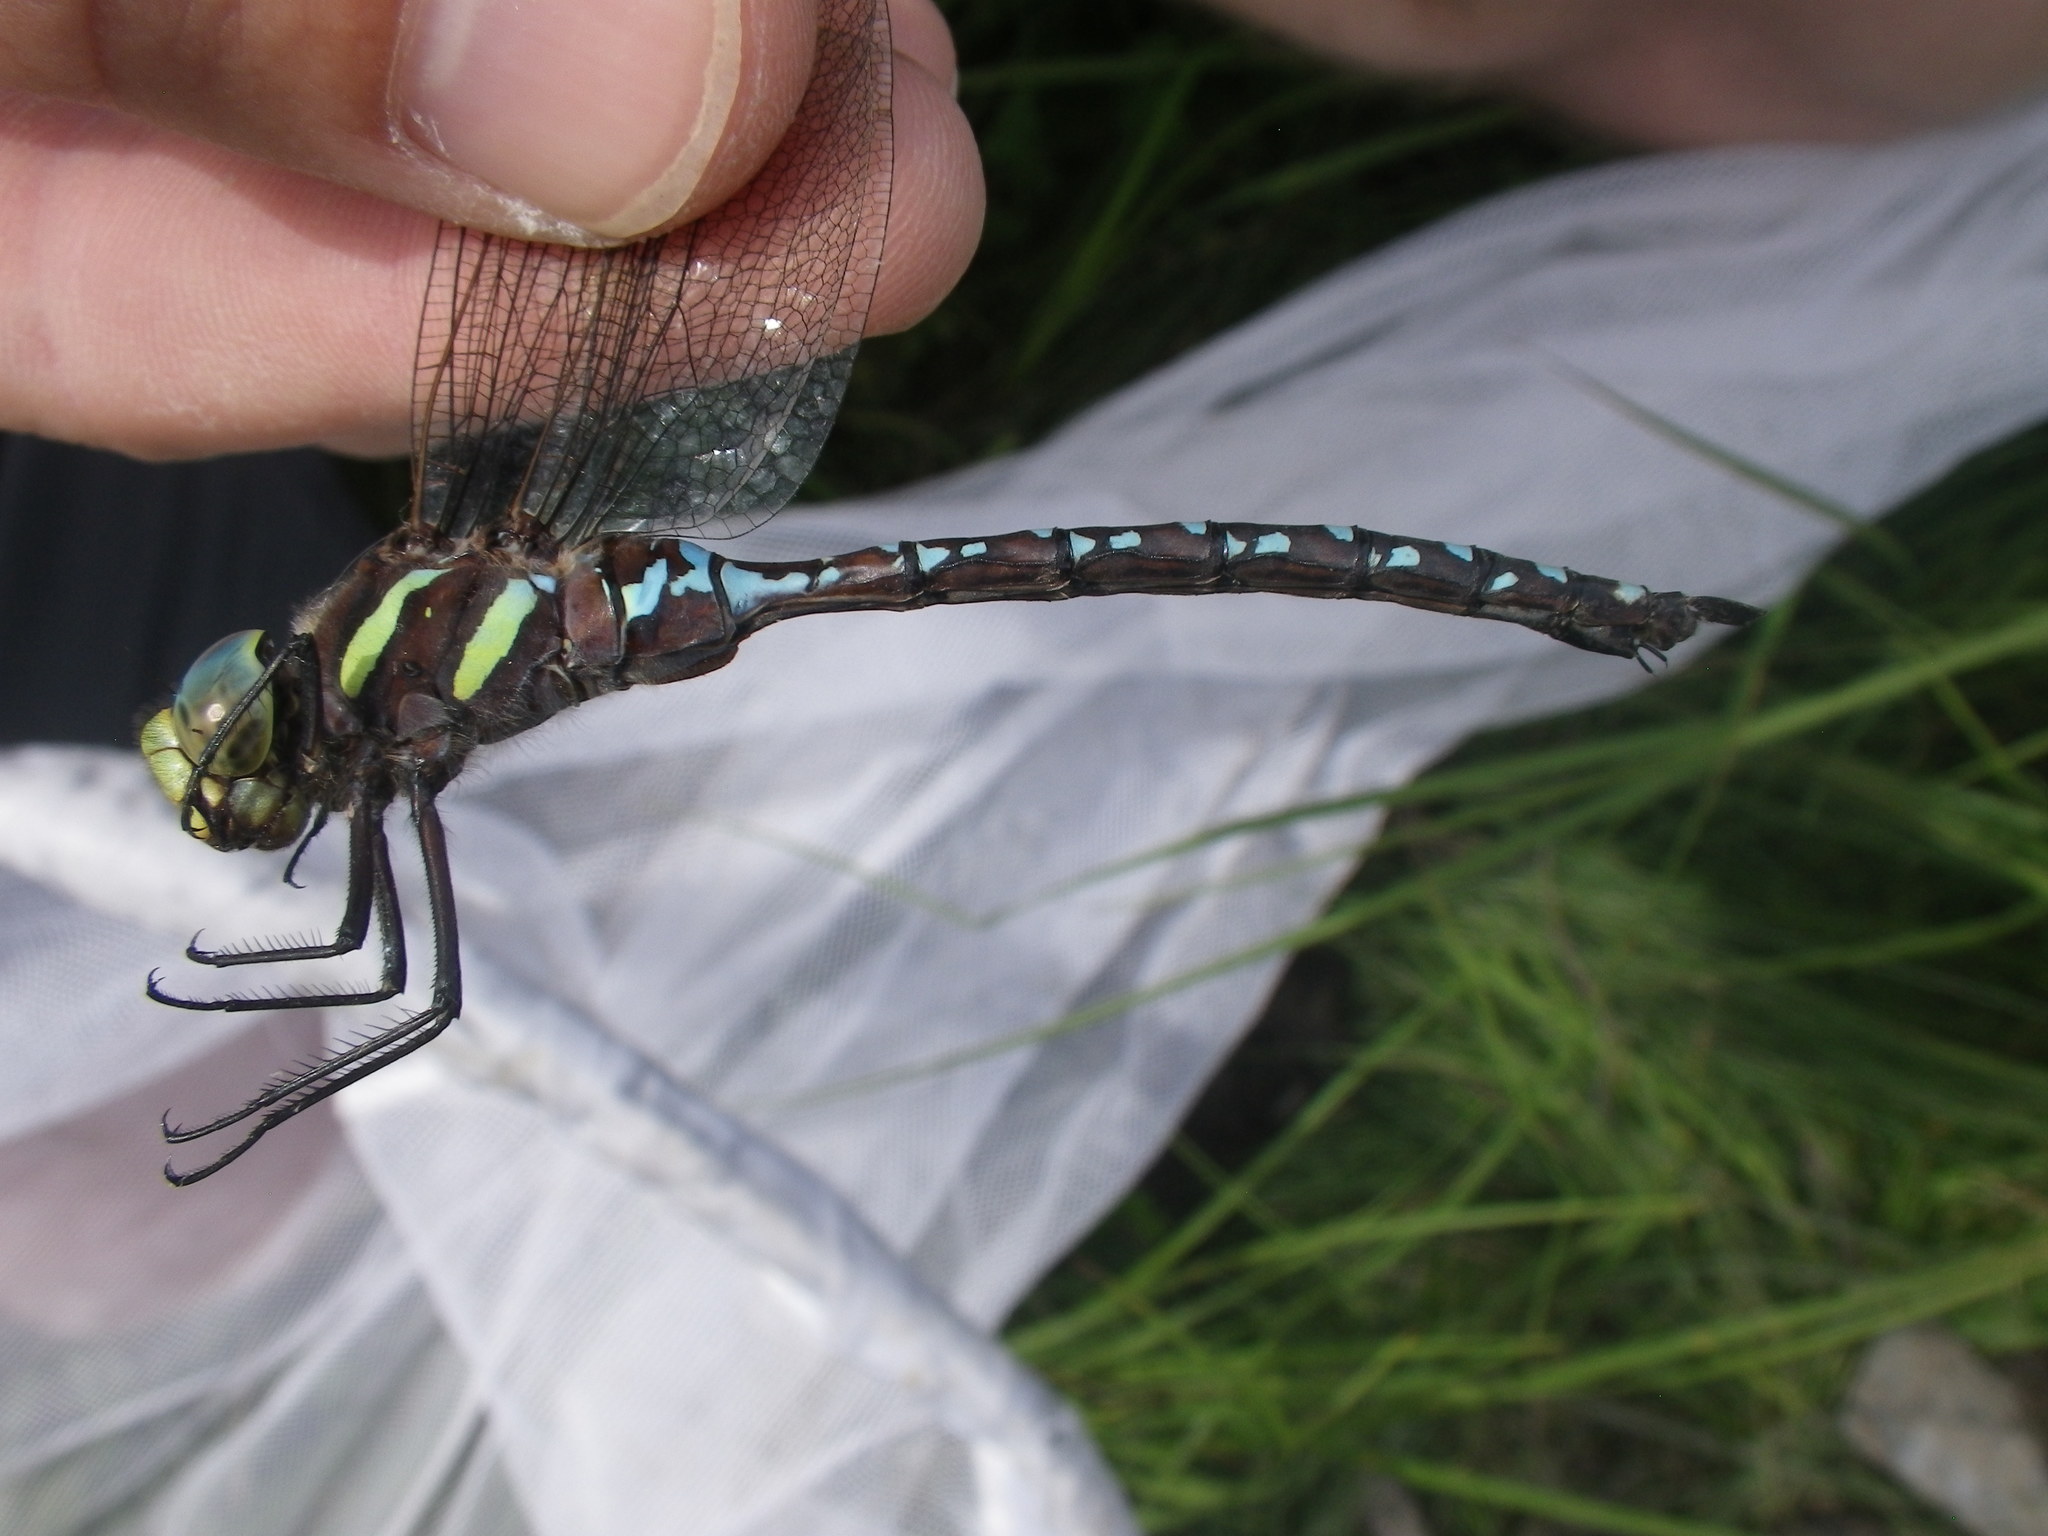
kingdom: Animalia
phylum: Arthropoda
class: Insecta
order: Odonata
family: Aeshnidae
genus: Aeshna
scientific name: Aeshna tuberculifera
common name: Aeschne à tubercules
